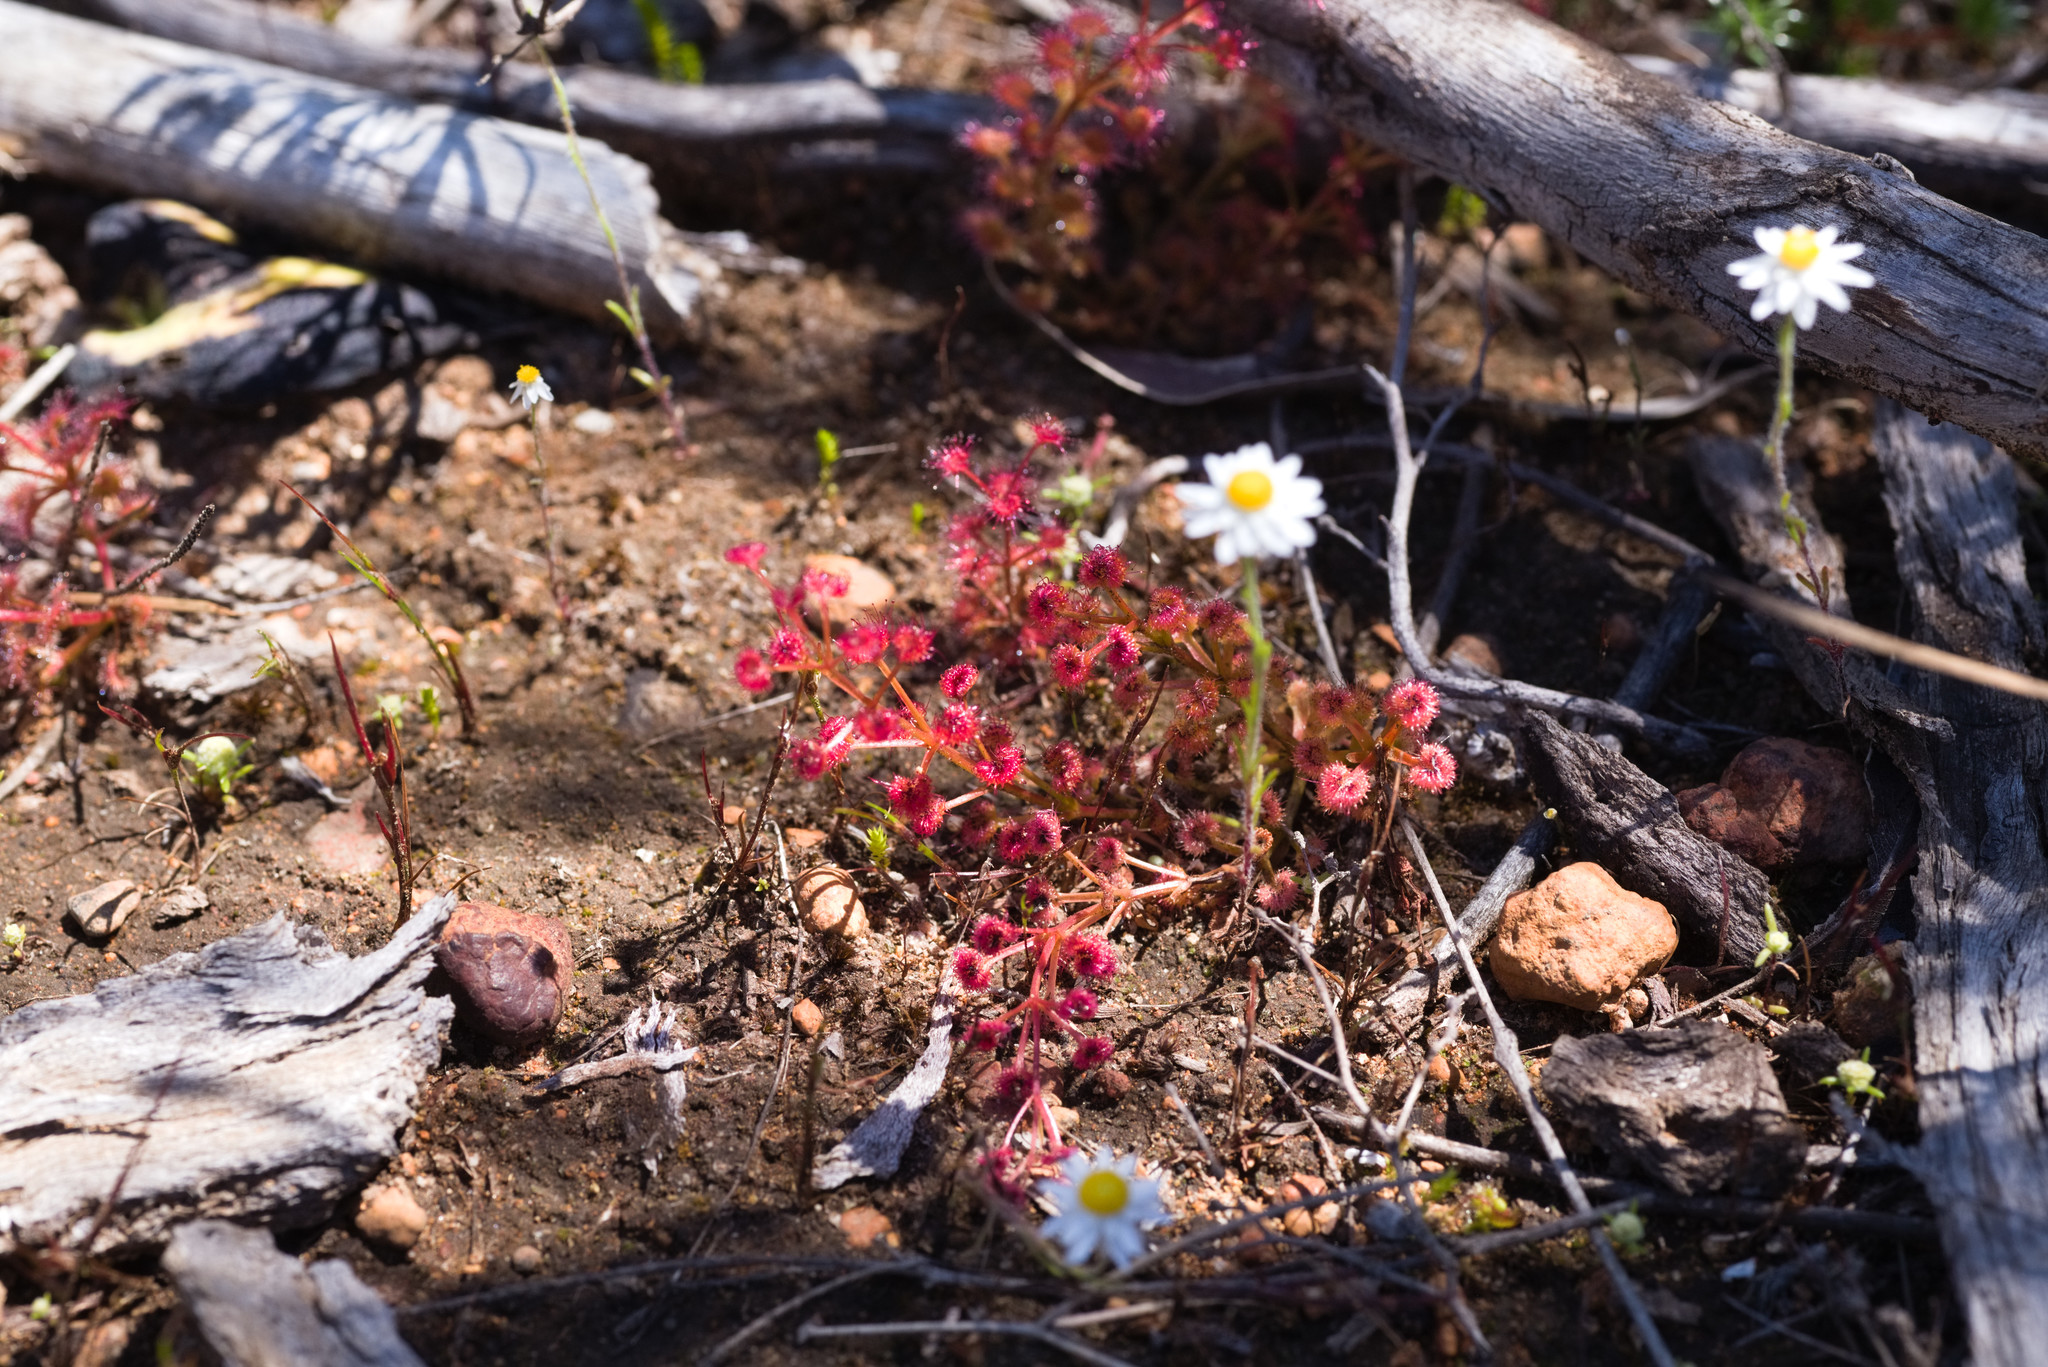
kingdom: Plantae
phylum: Tracheophyta
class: Magnoliopsida
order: Caryophyllales
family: Droseraceae
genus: Drosera
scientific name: Drosera stolonifera
